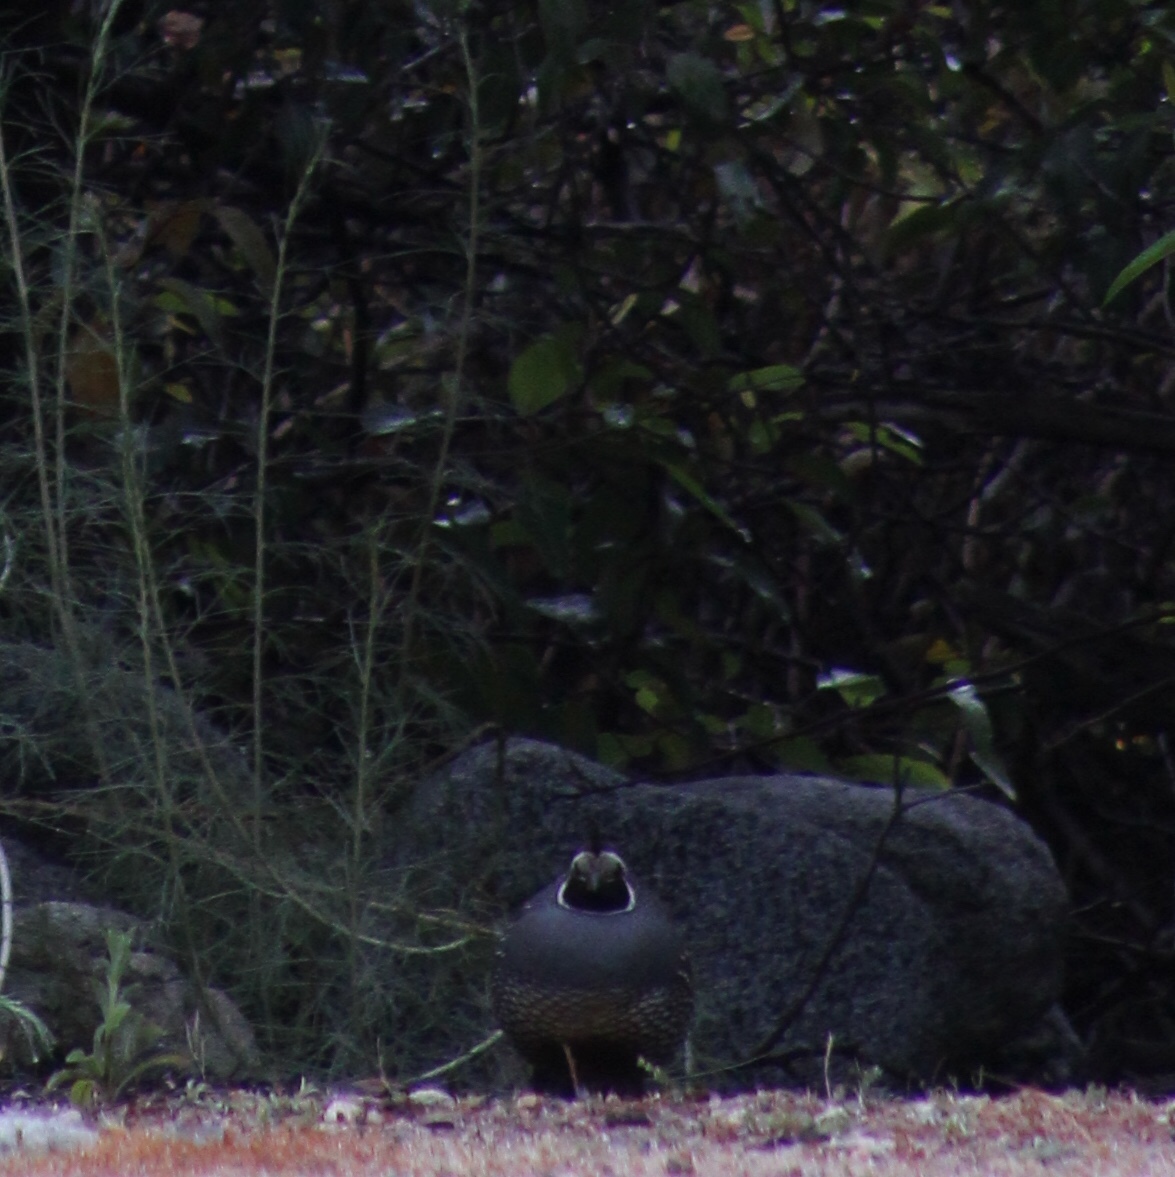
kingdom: Animalia
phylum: Chordata
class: Aves
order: Galliformes
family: Odontophoridae
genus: Callipepla
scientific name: Callipepla californica
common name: California quail
